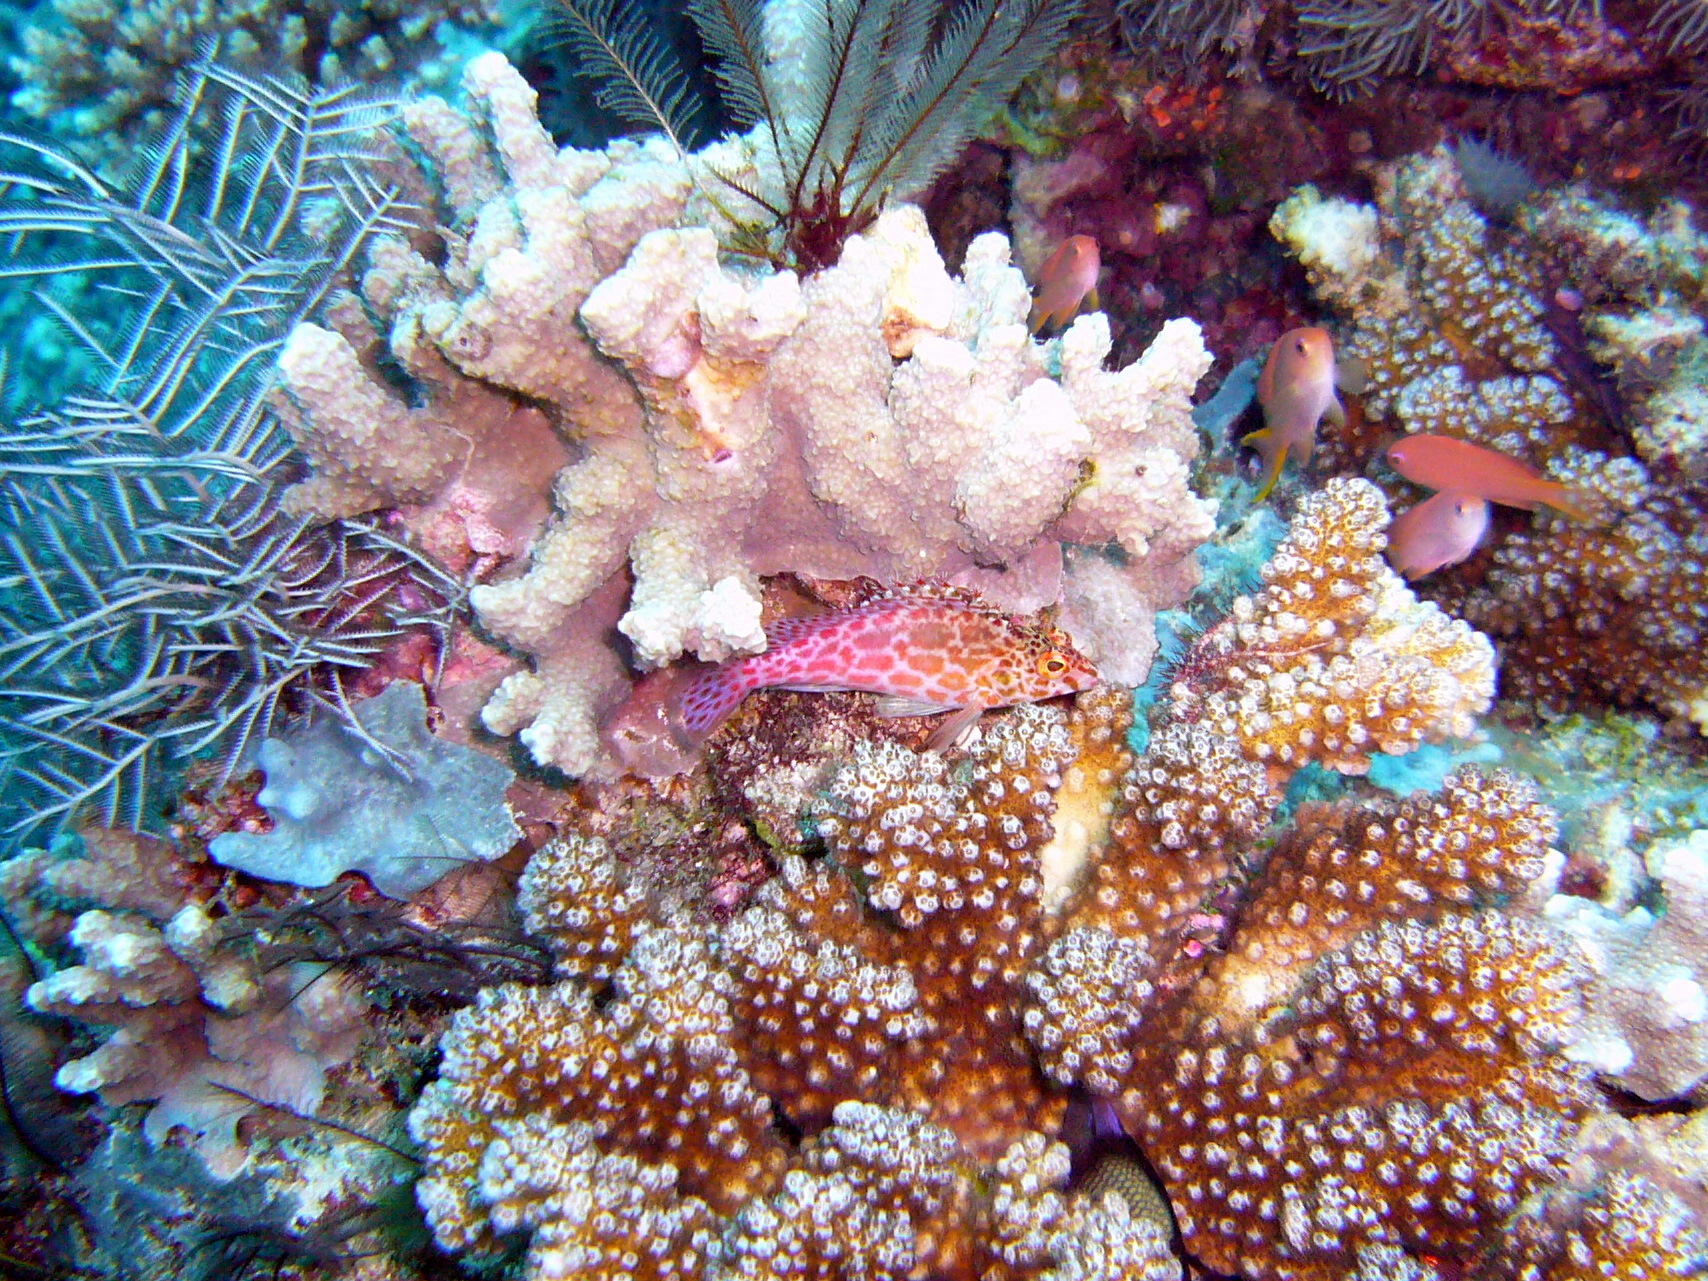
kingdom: Animalia
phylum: Chordata
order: Perciformes
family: Cirrhitidae
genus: Cirrhitichthys
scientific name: Cirrhitichthys oxycephalus
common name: Spotted hawkfish
